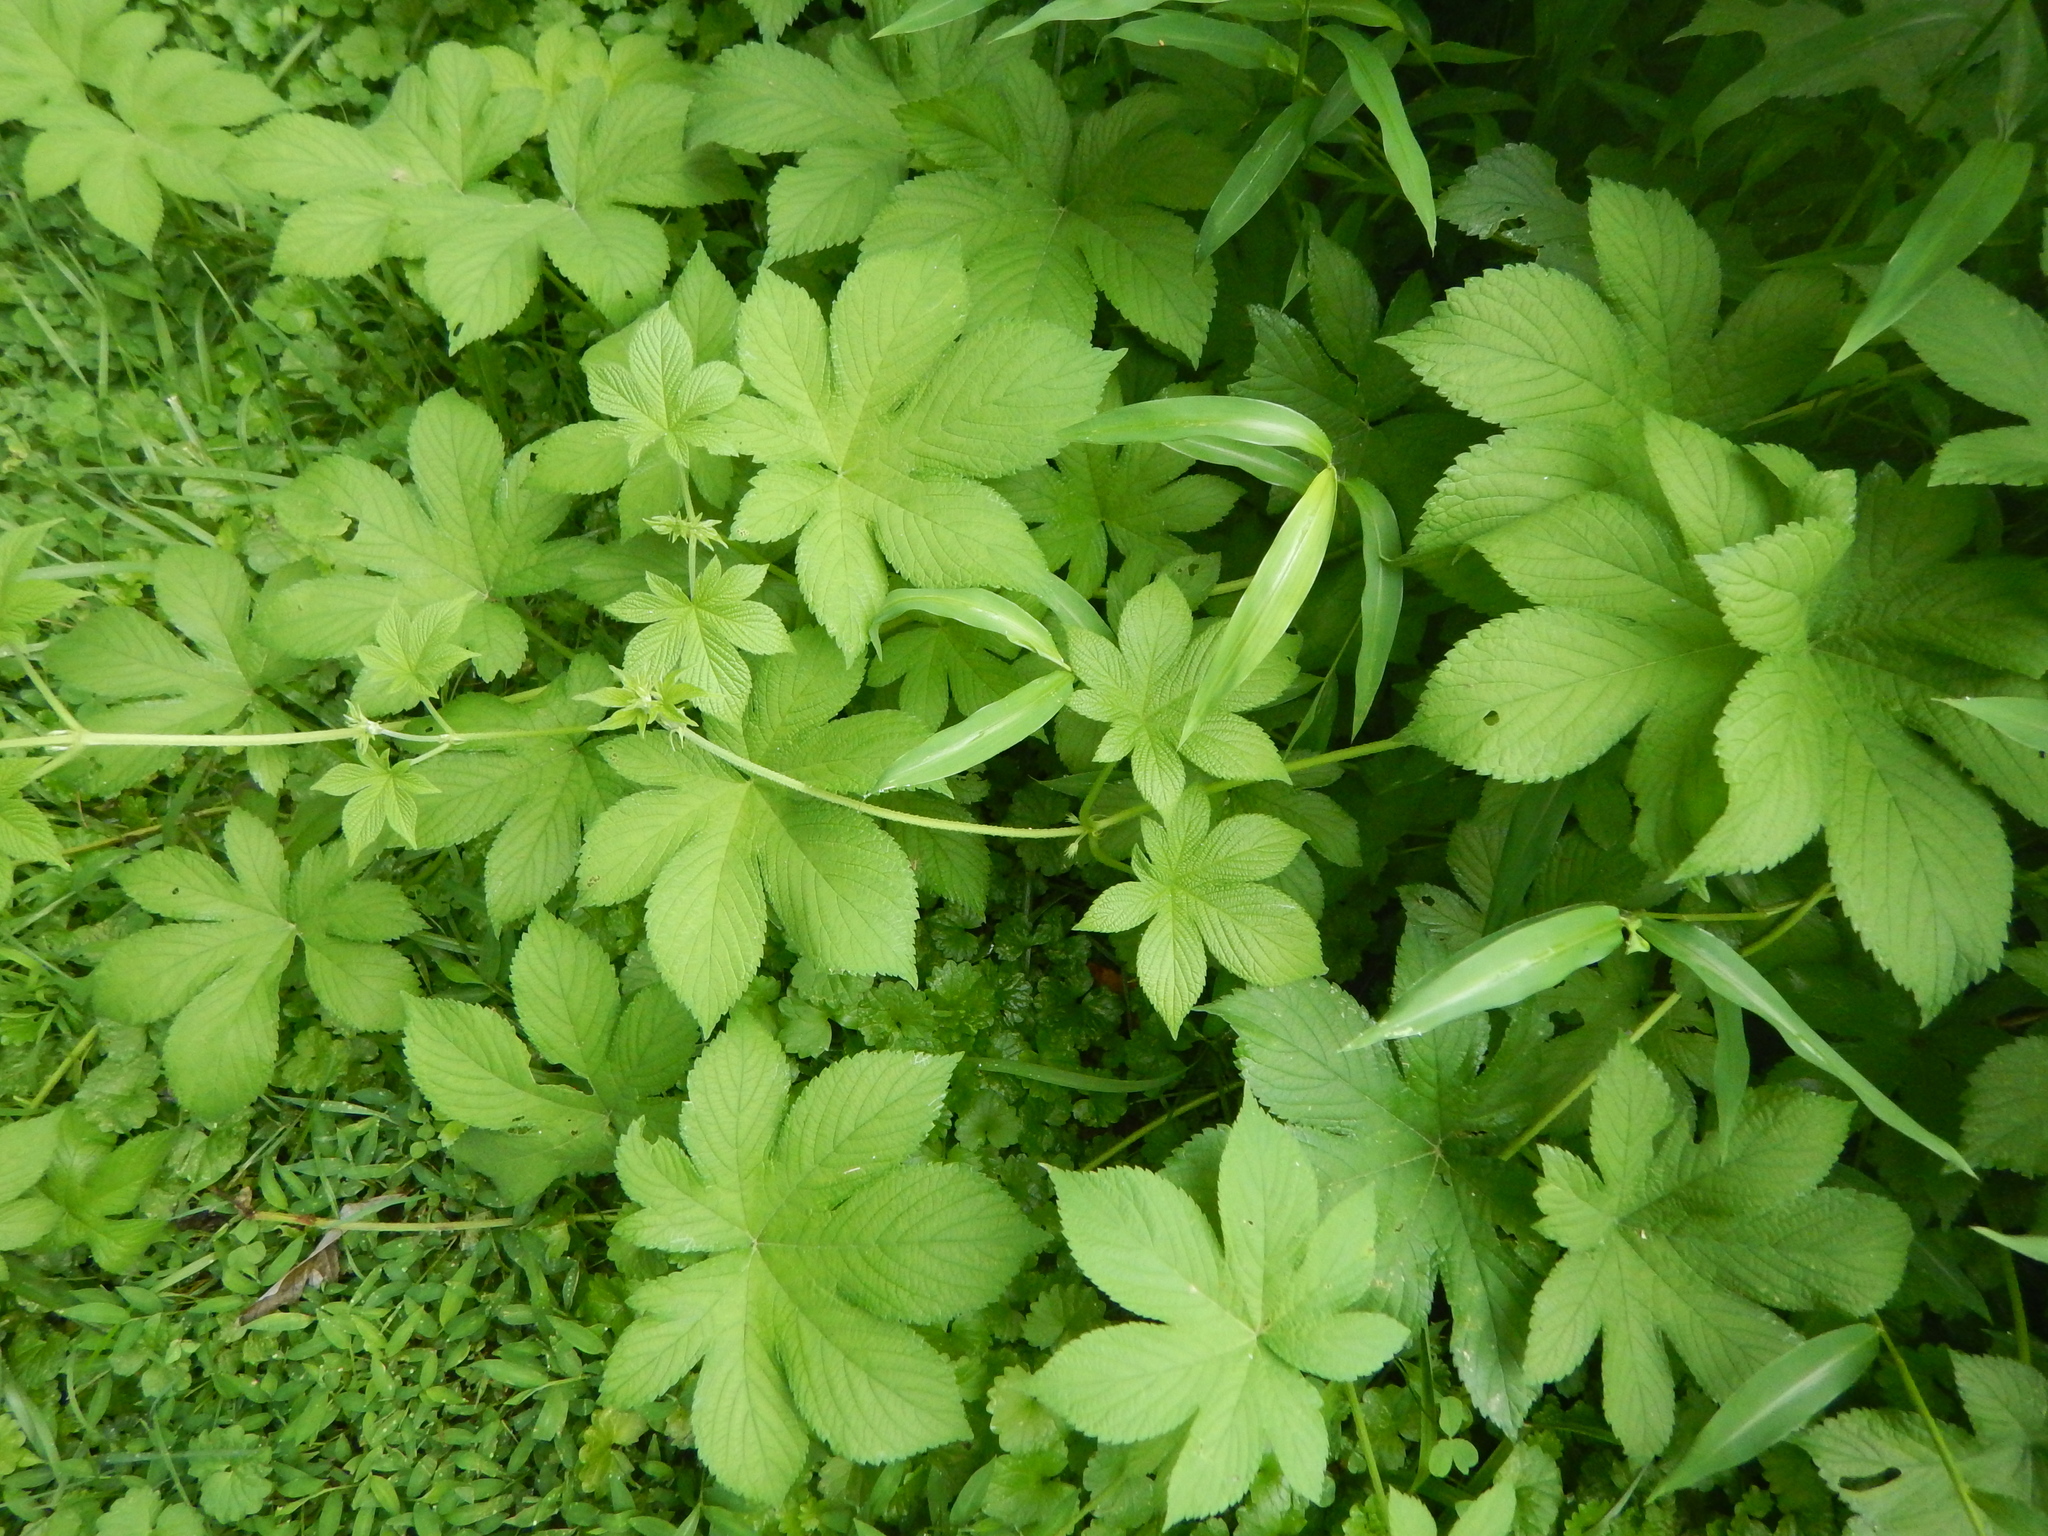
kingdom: Plantae
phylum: Tracheophyta
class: Magnoliopsida
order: Rosales
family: Cannabaceae
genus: Humulus
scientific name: Humulus scandens
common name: Japanese hop
